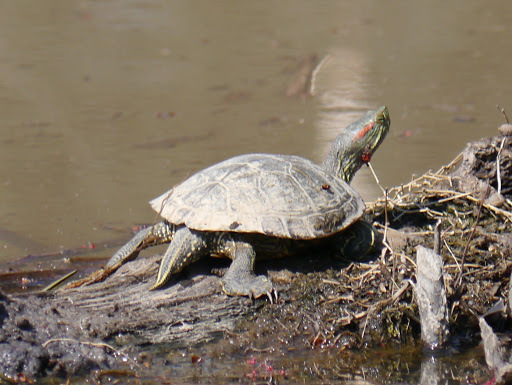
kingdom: Animalia
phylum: Chordata
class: Testudines
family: Emydidae
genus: Trachemys
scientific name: Trachemys scripta
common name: Slider
